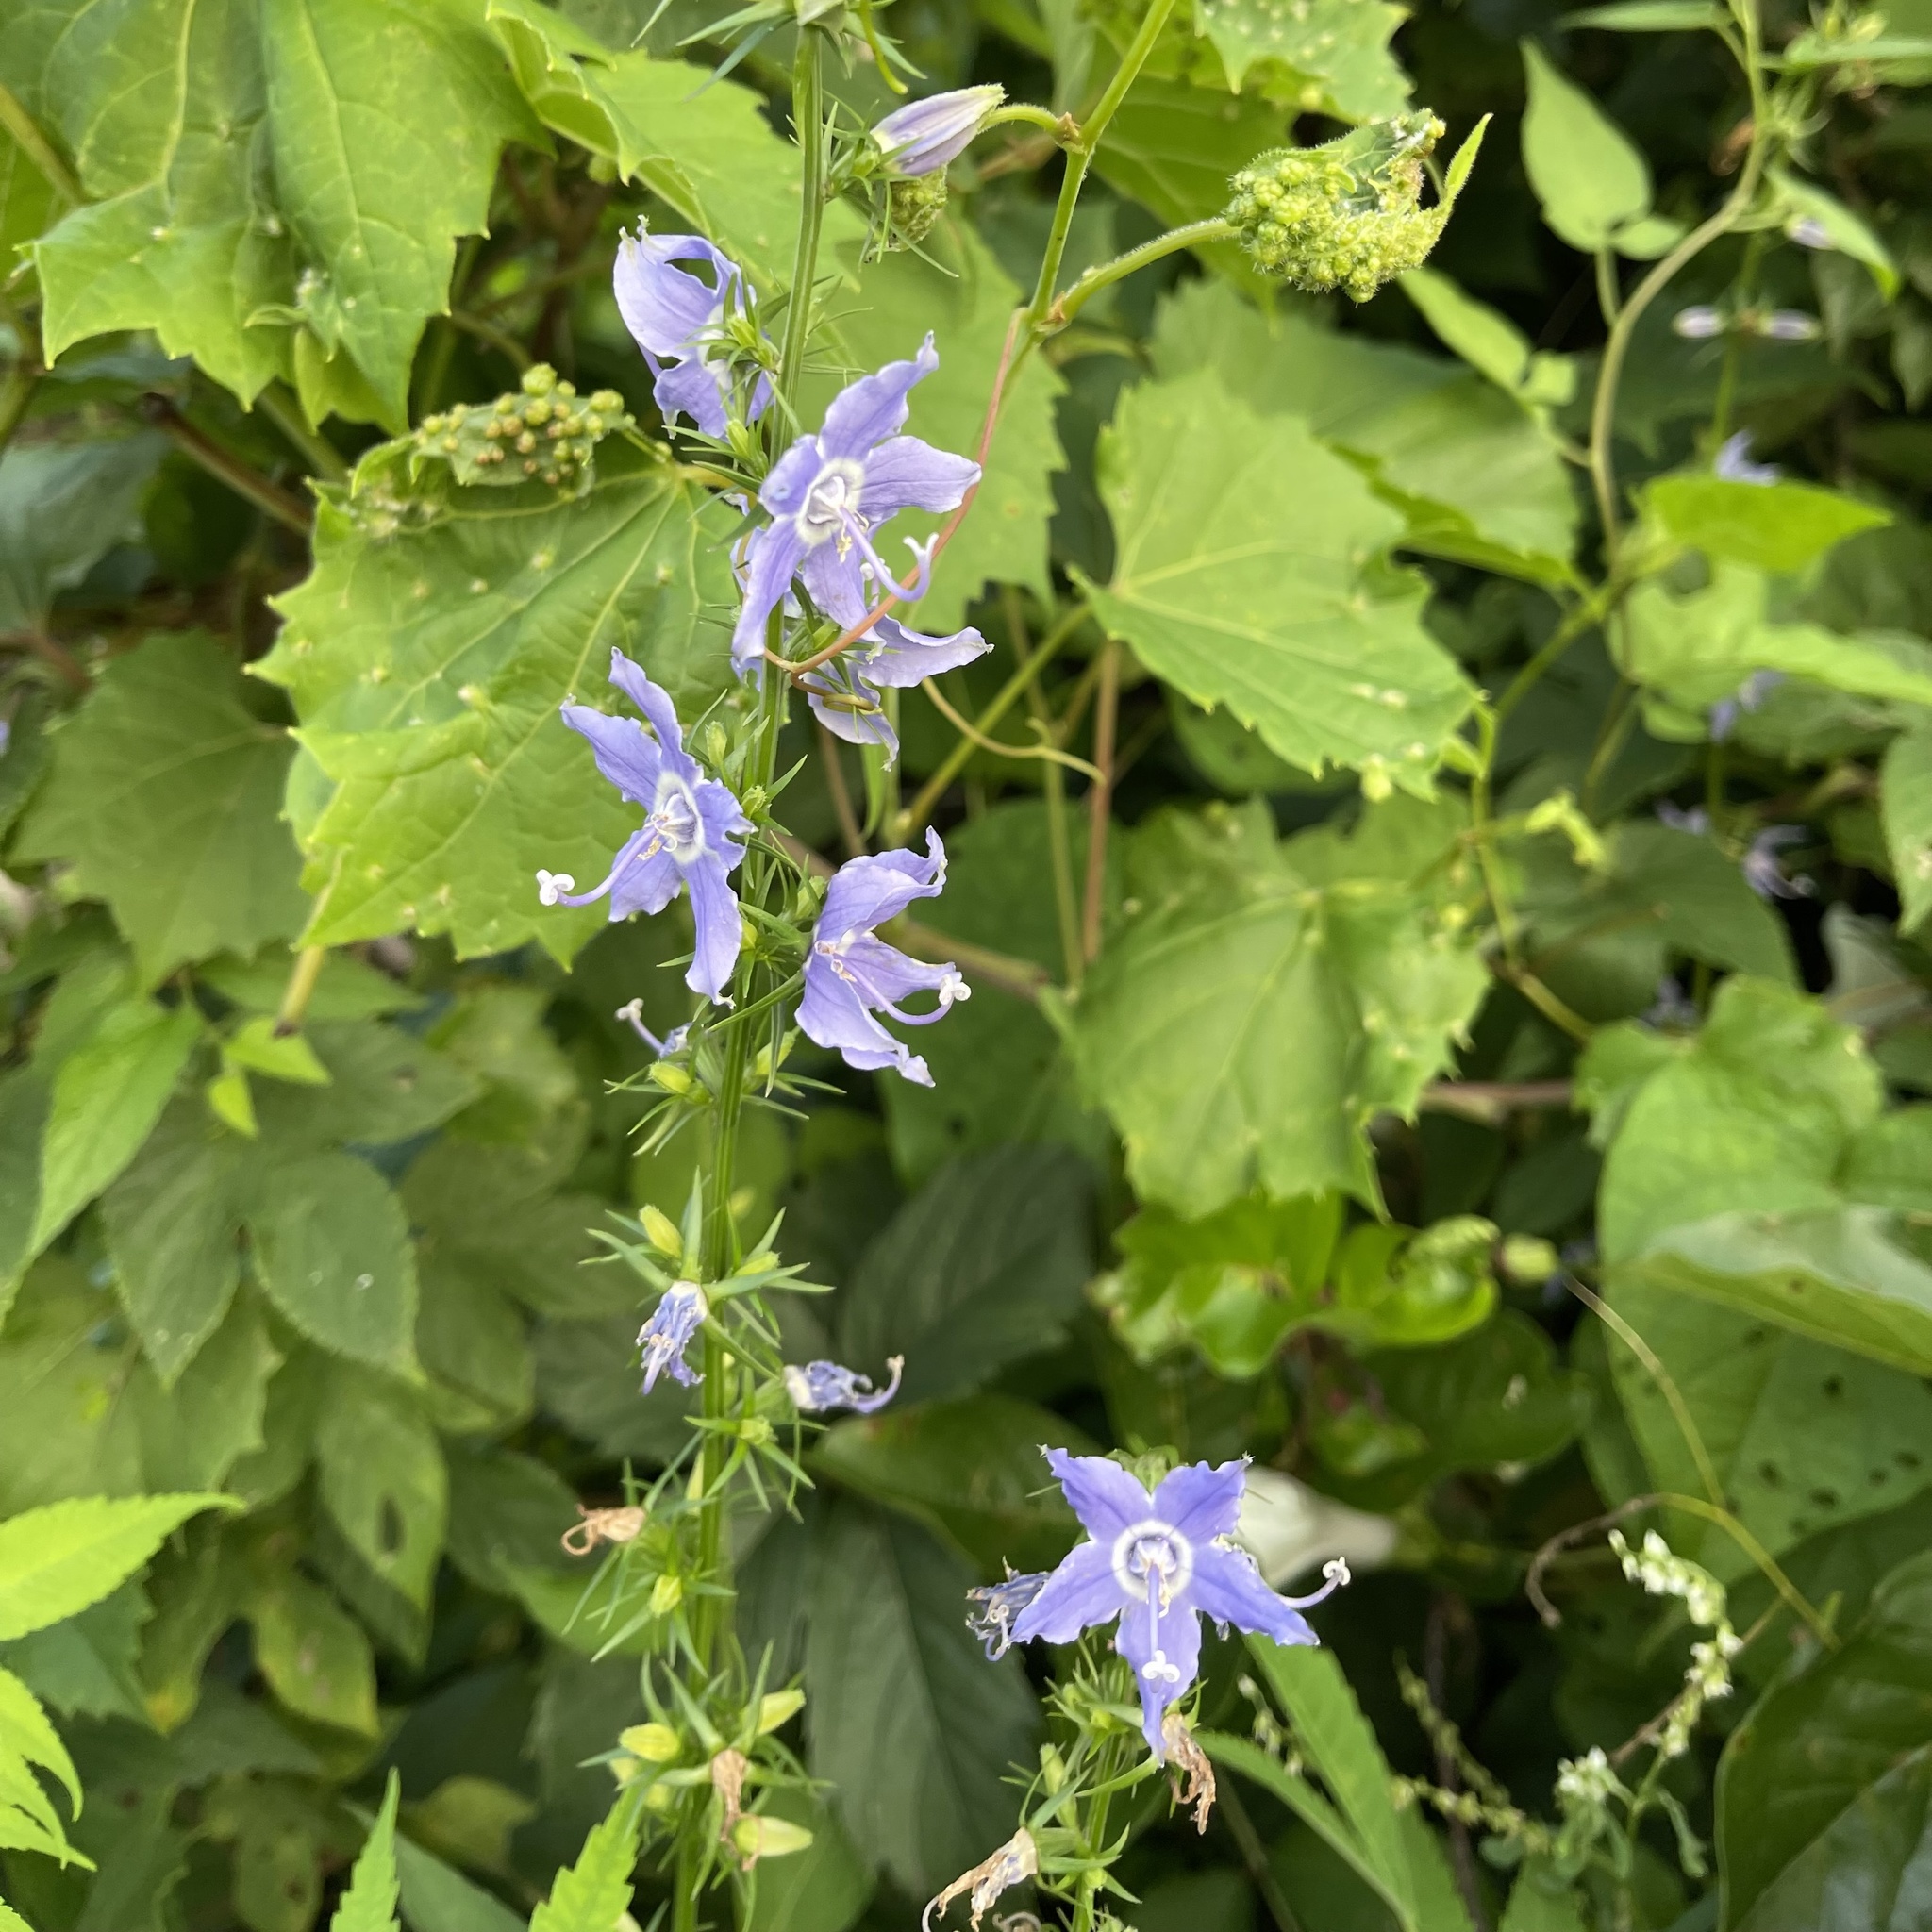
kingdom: Plantae
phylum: Tracheophyta
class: Magnoliopsida
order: Asterales
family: Campanulaceae
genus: Campanulastrum
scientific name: Campanulastrum americanum
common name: American bellflower
